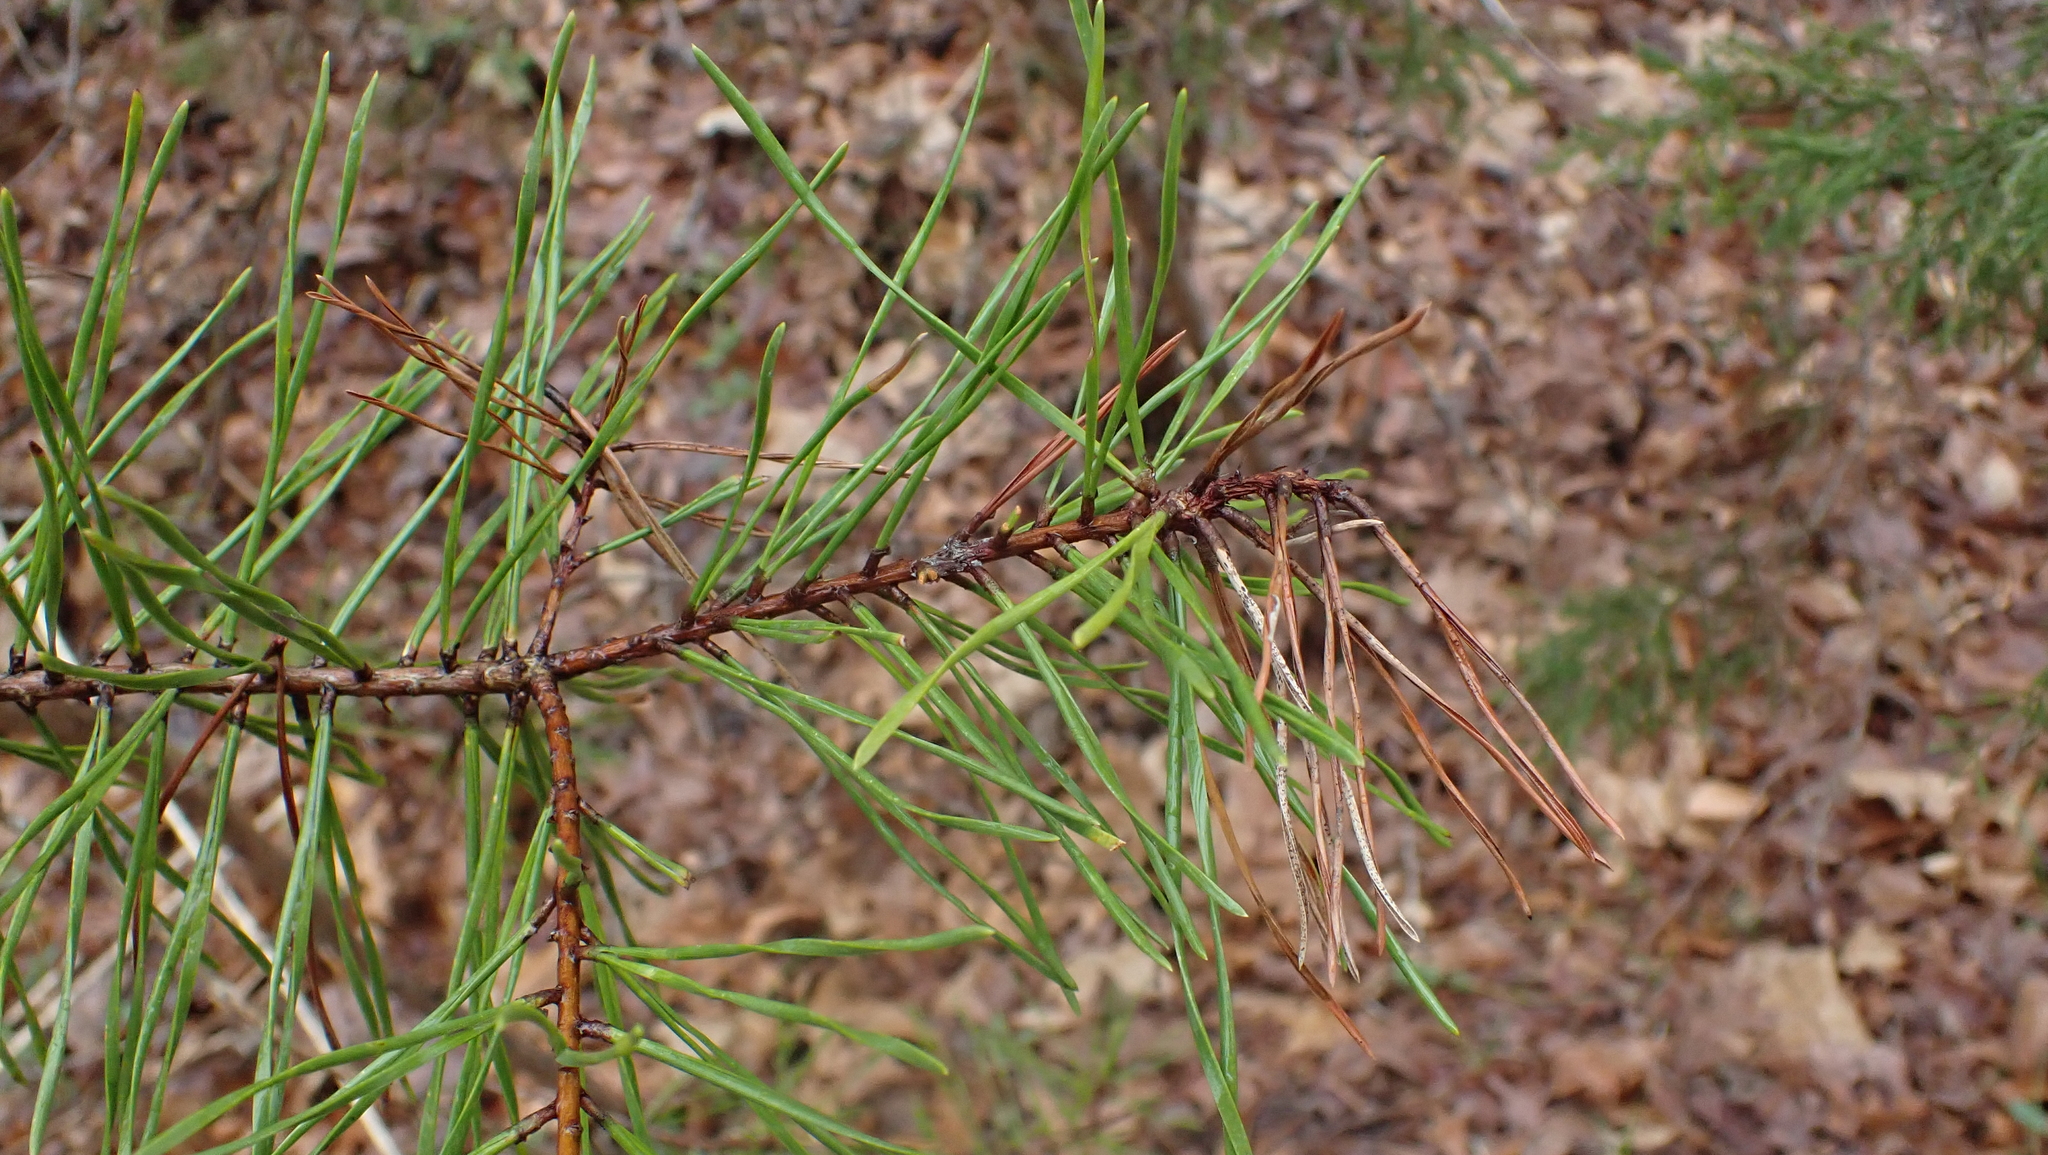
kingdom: Plantae
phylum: Tracheophyta
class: Pinopsida
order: Pinales
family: Pinaceae
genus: Pinus
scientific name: Pinus virginiana
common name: Scrub pine
